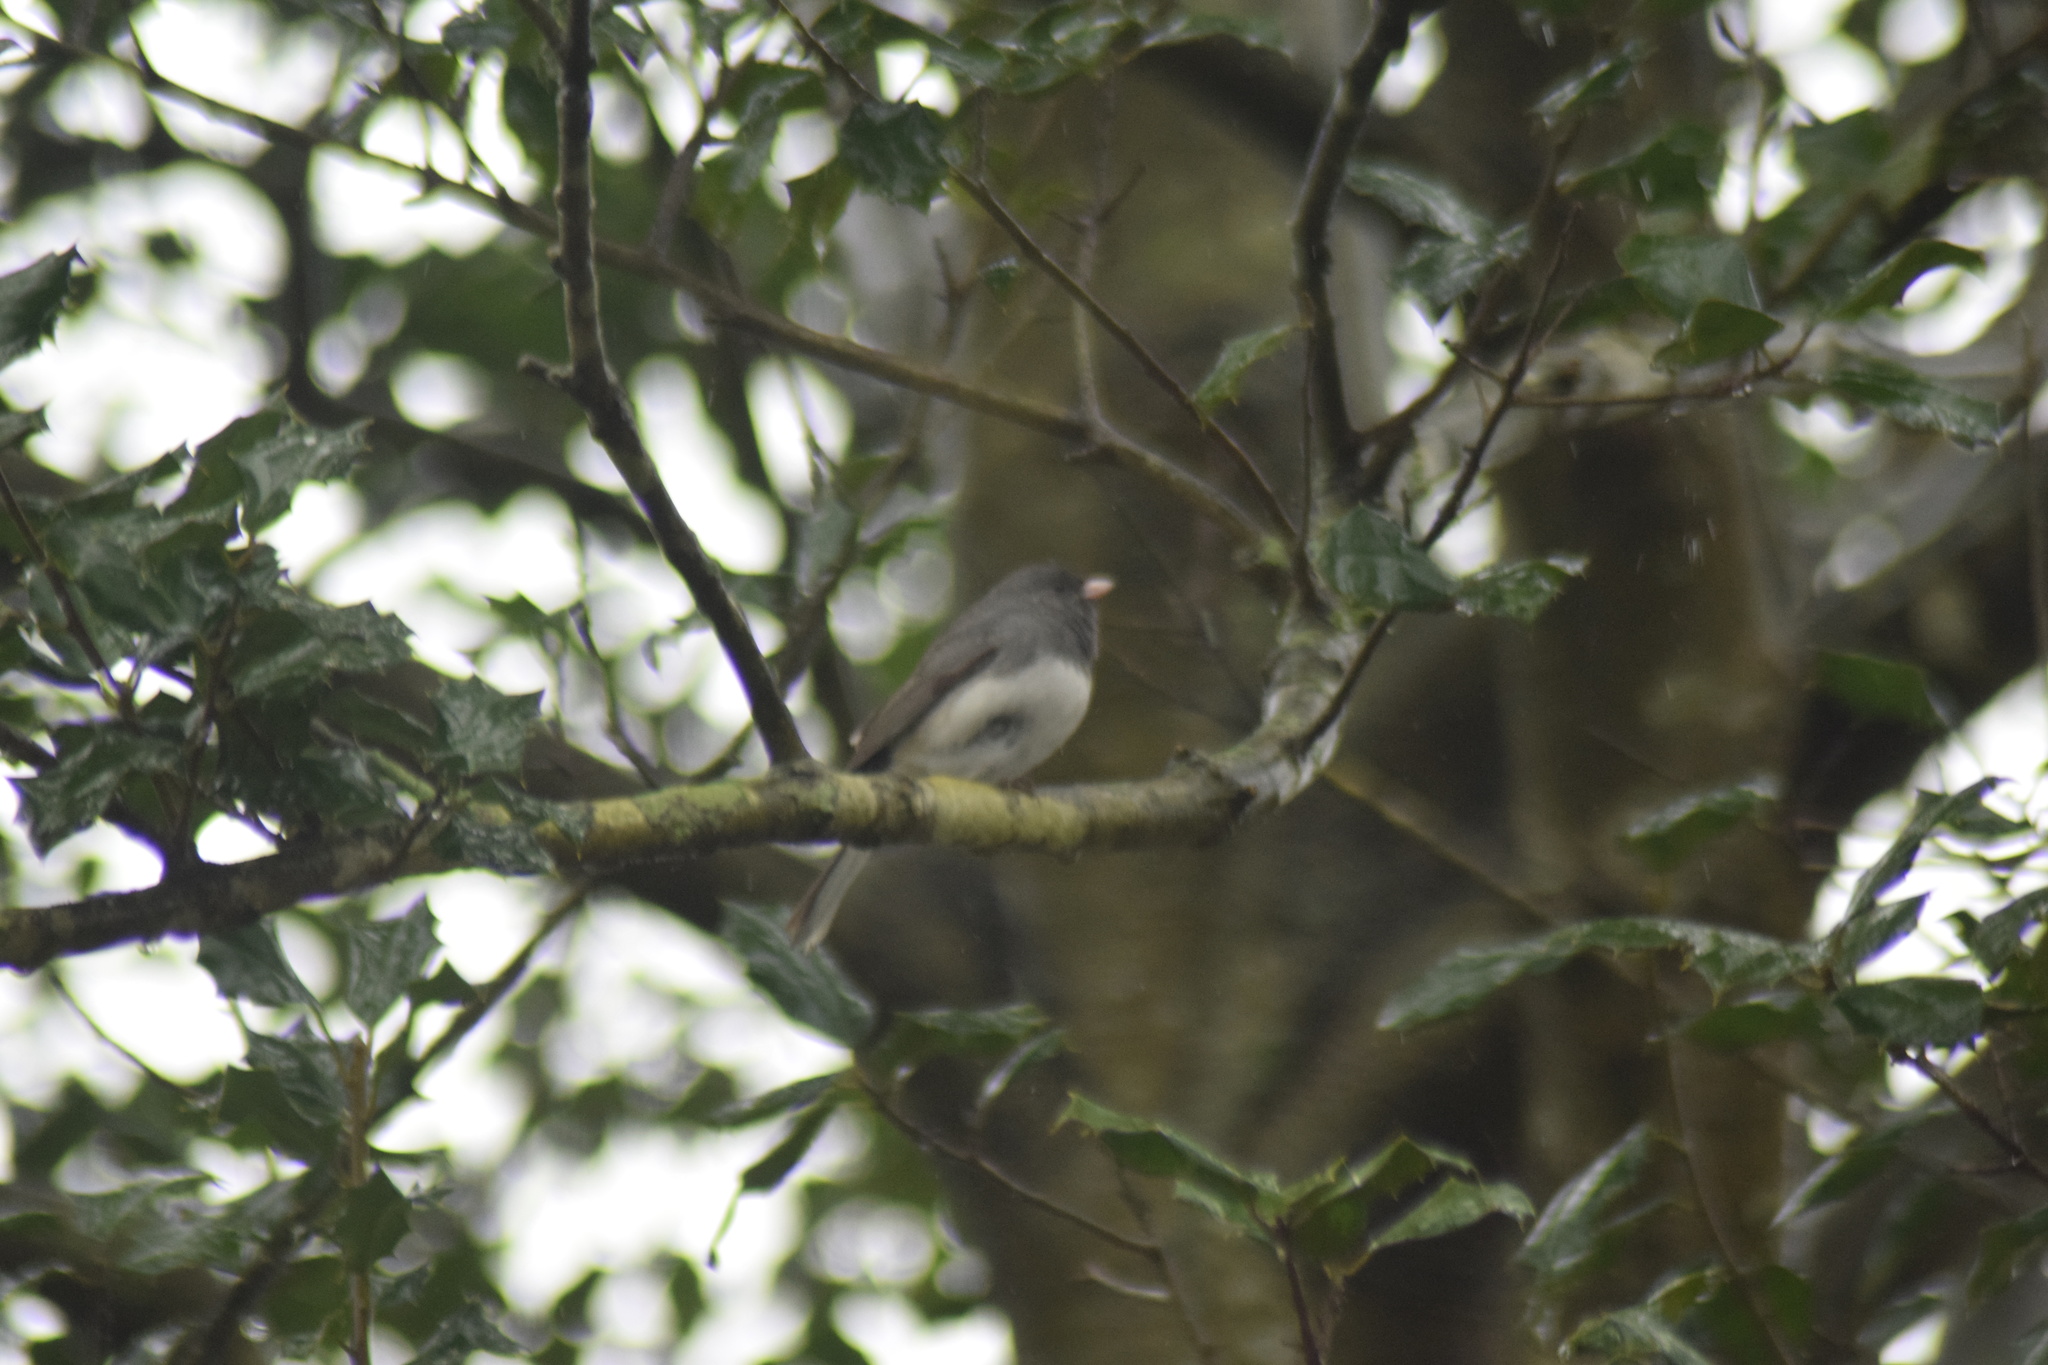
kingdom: Animalia
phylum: Chordata
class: Aves
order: Passeriformes
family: Passerellidae
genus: Junco
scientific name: Junco hyemalis
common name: Dark-eyed junco
